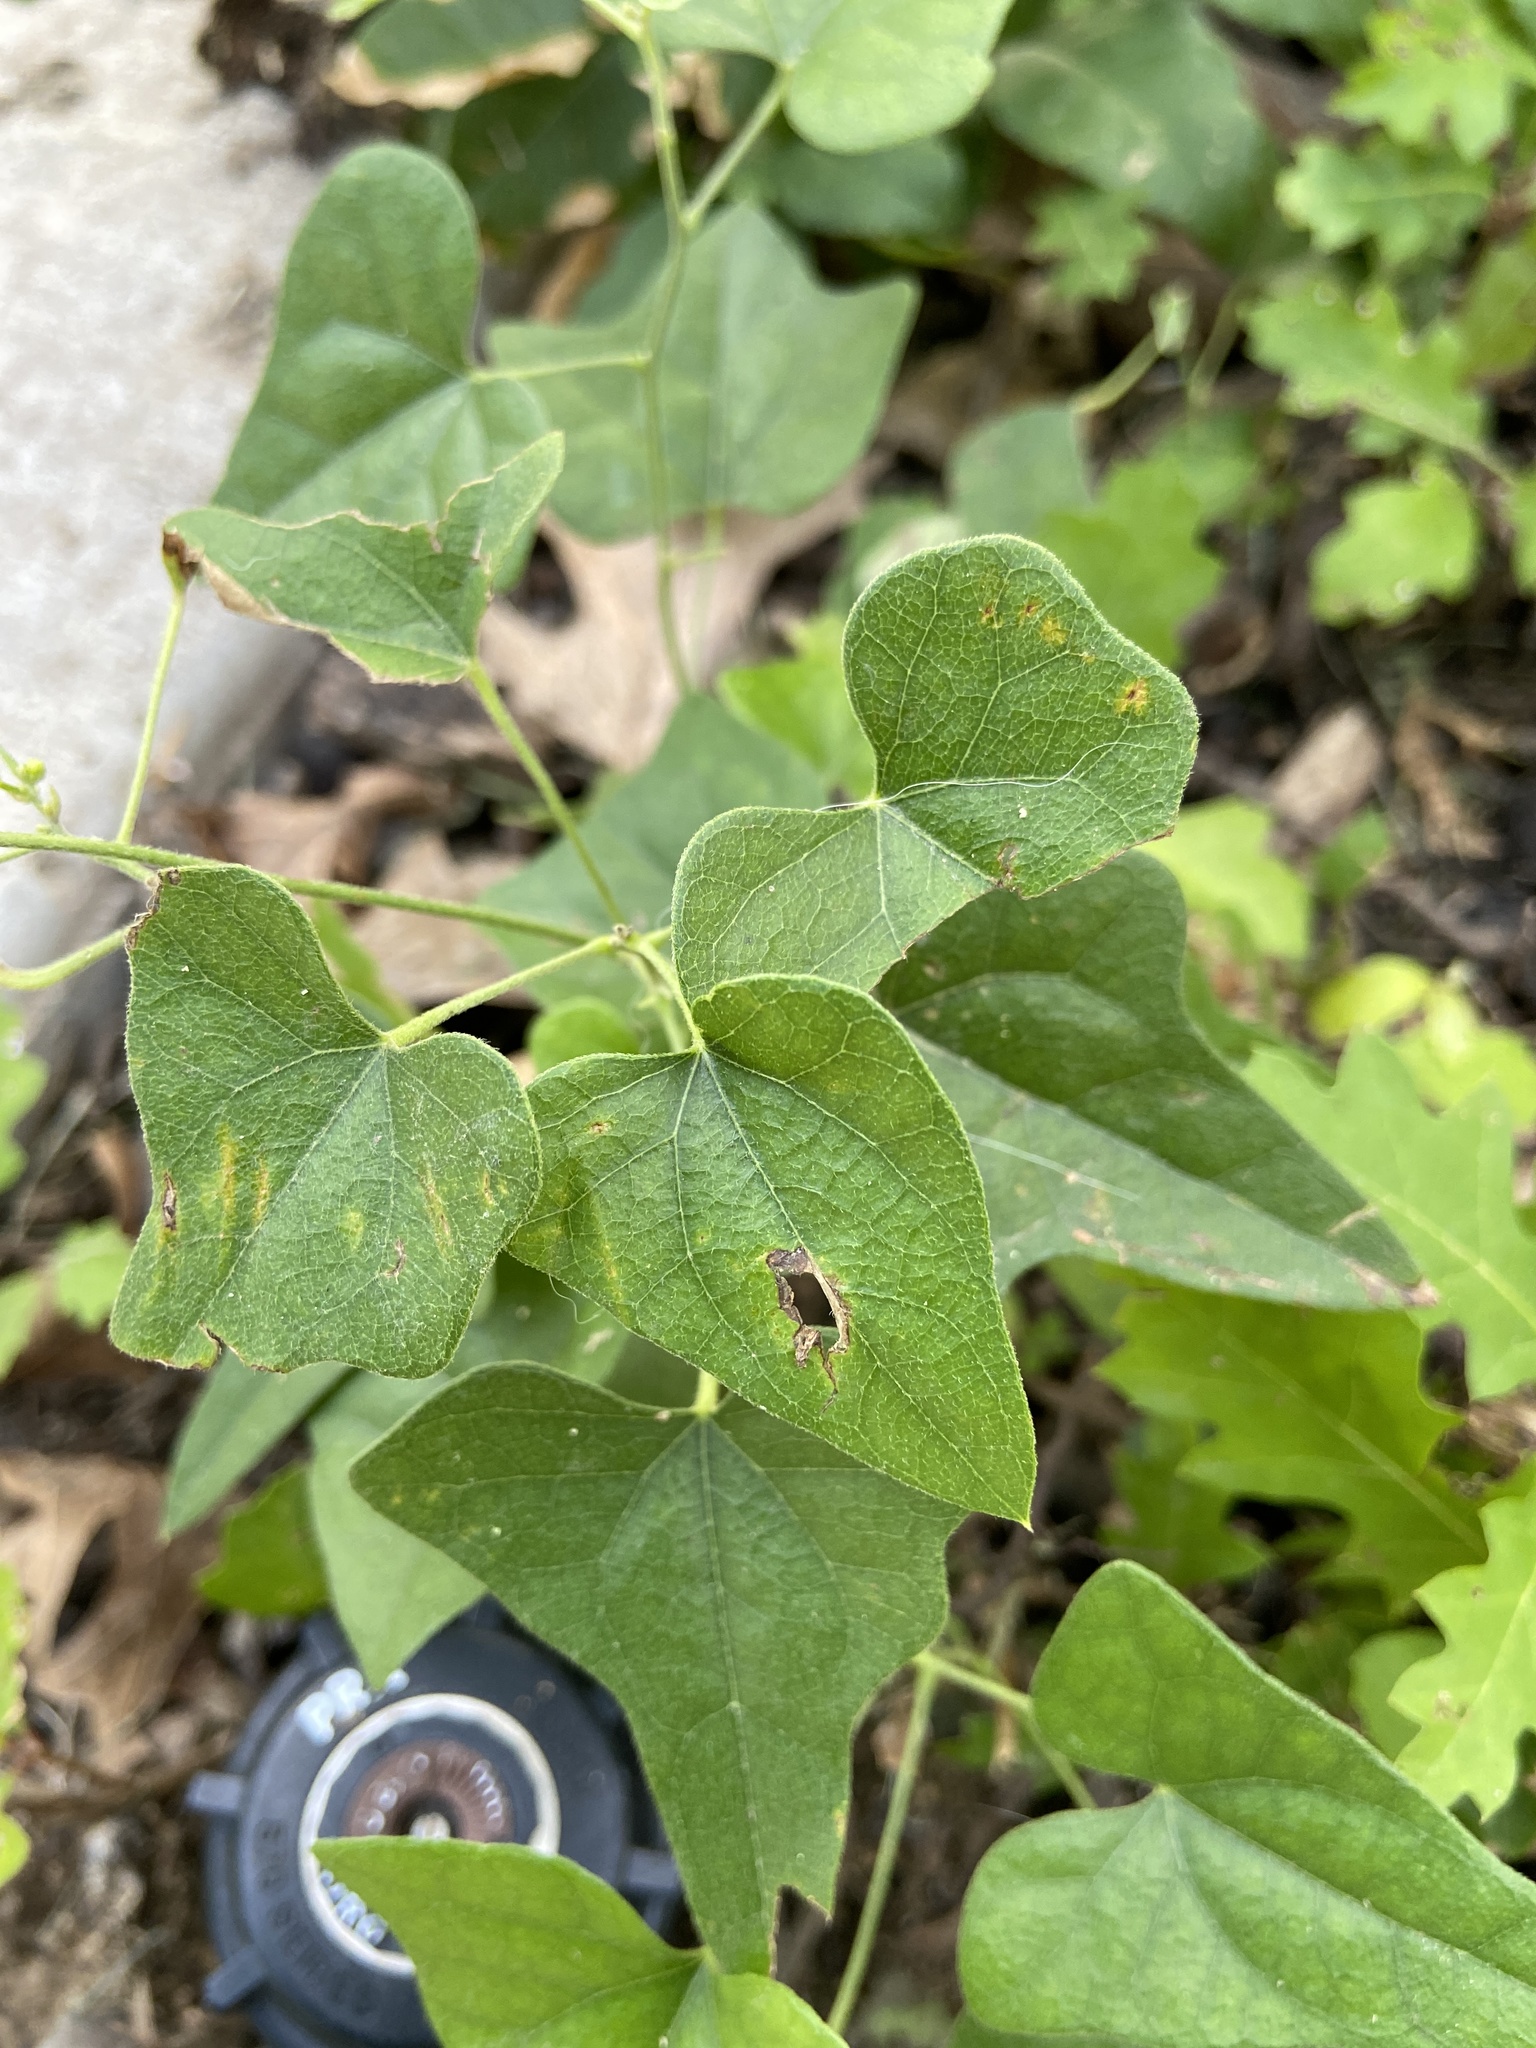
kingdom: Plantae
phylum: Tracheophyta
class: Magnoliopsida
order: Ranunculales
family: Menispermaceae
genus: Cocculus
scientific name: Cocculus carolinus
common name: Carolina moonseed
